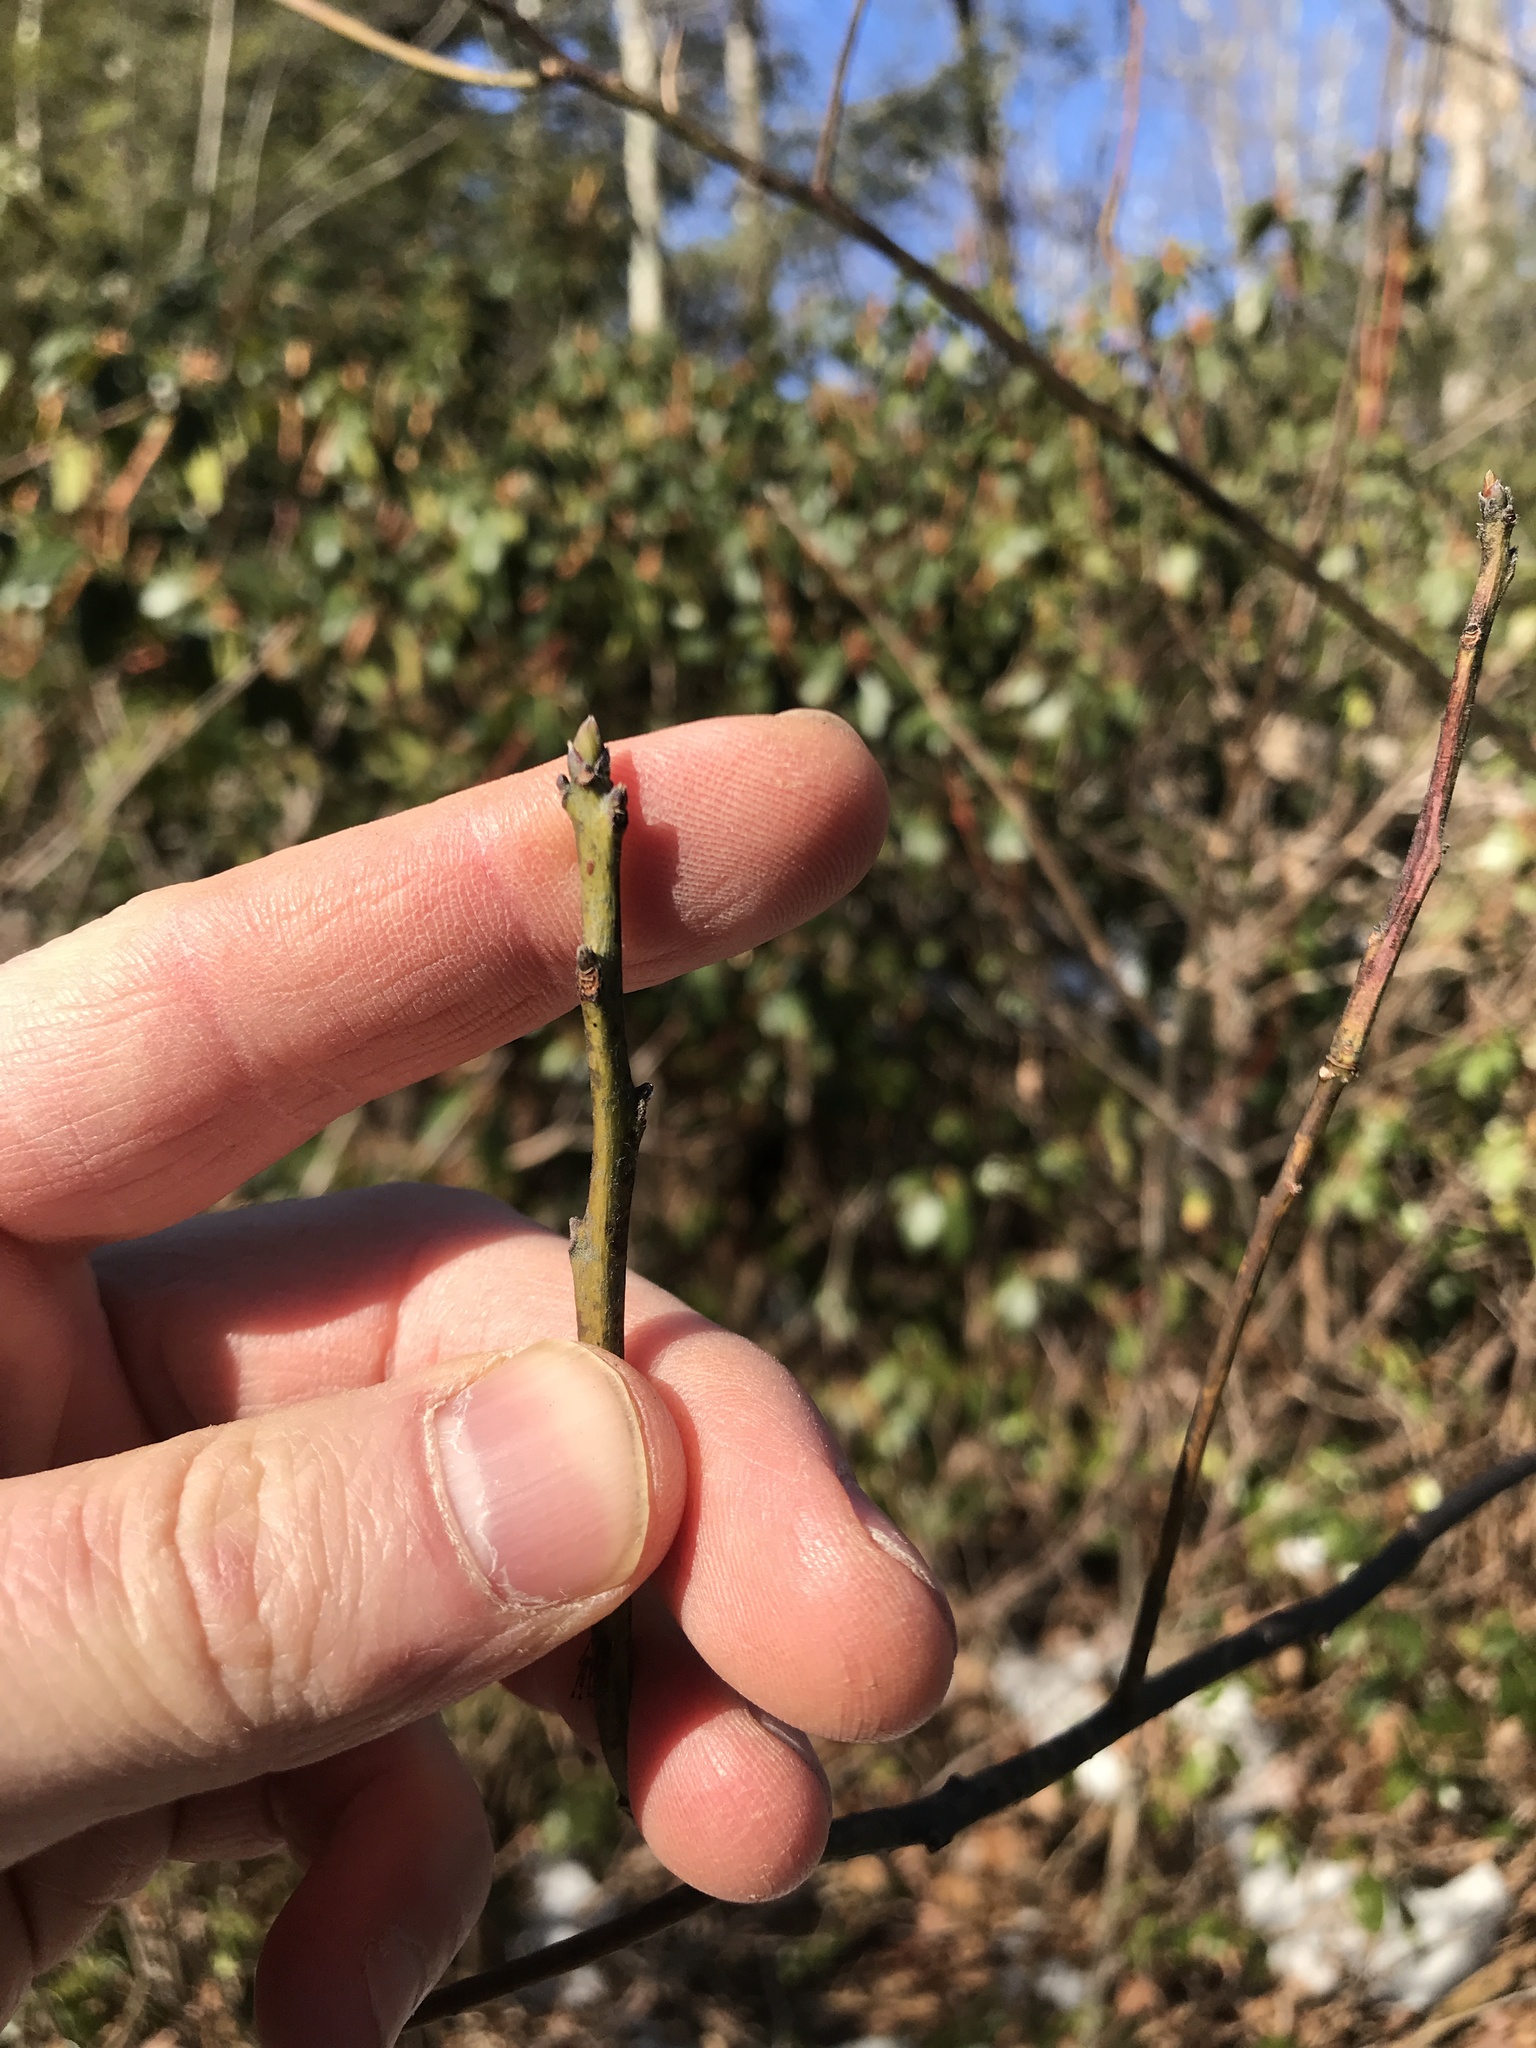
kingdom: Plantae
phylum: Tracheophyta
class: Magnoliopsida
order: Laurales
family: Lauraceae
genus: Sassafras
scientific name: Sassafras albidum
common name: Sassafras
